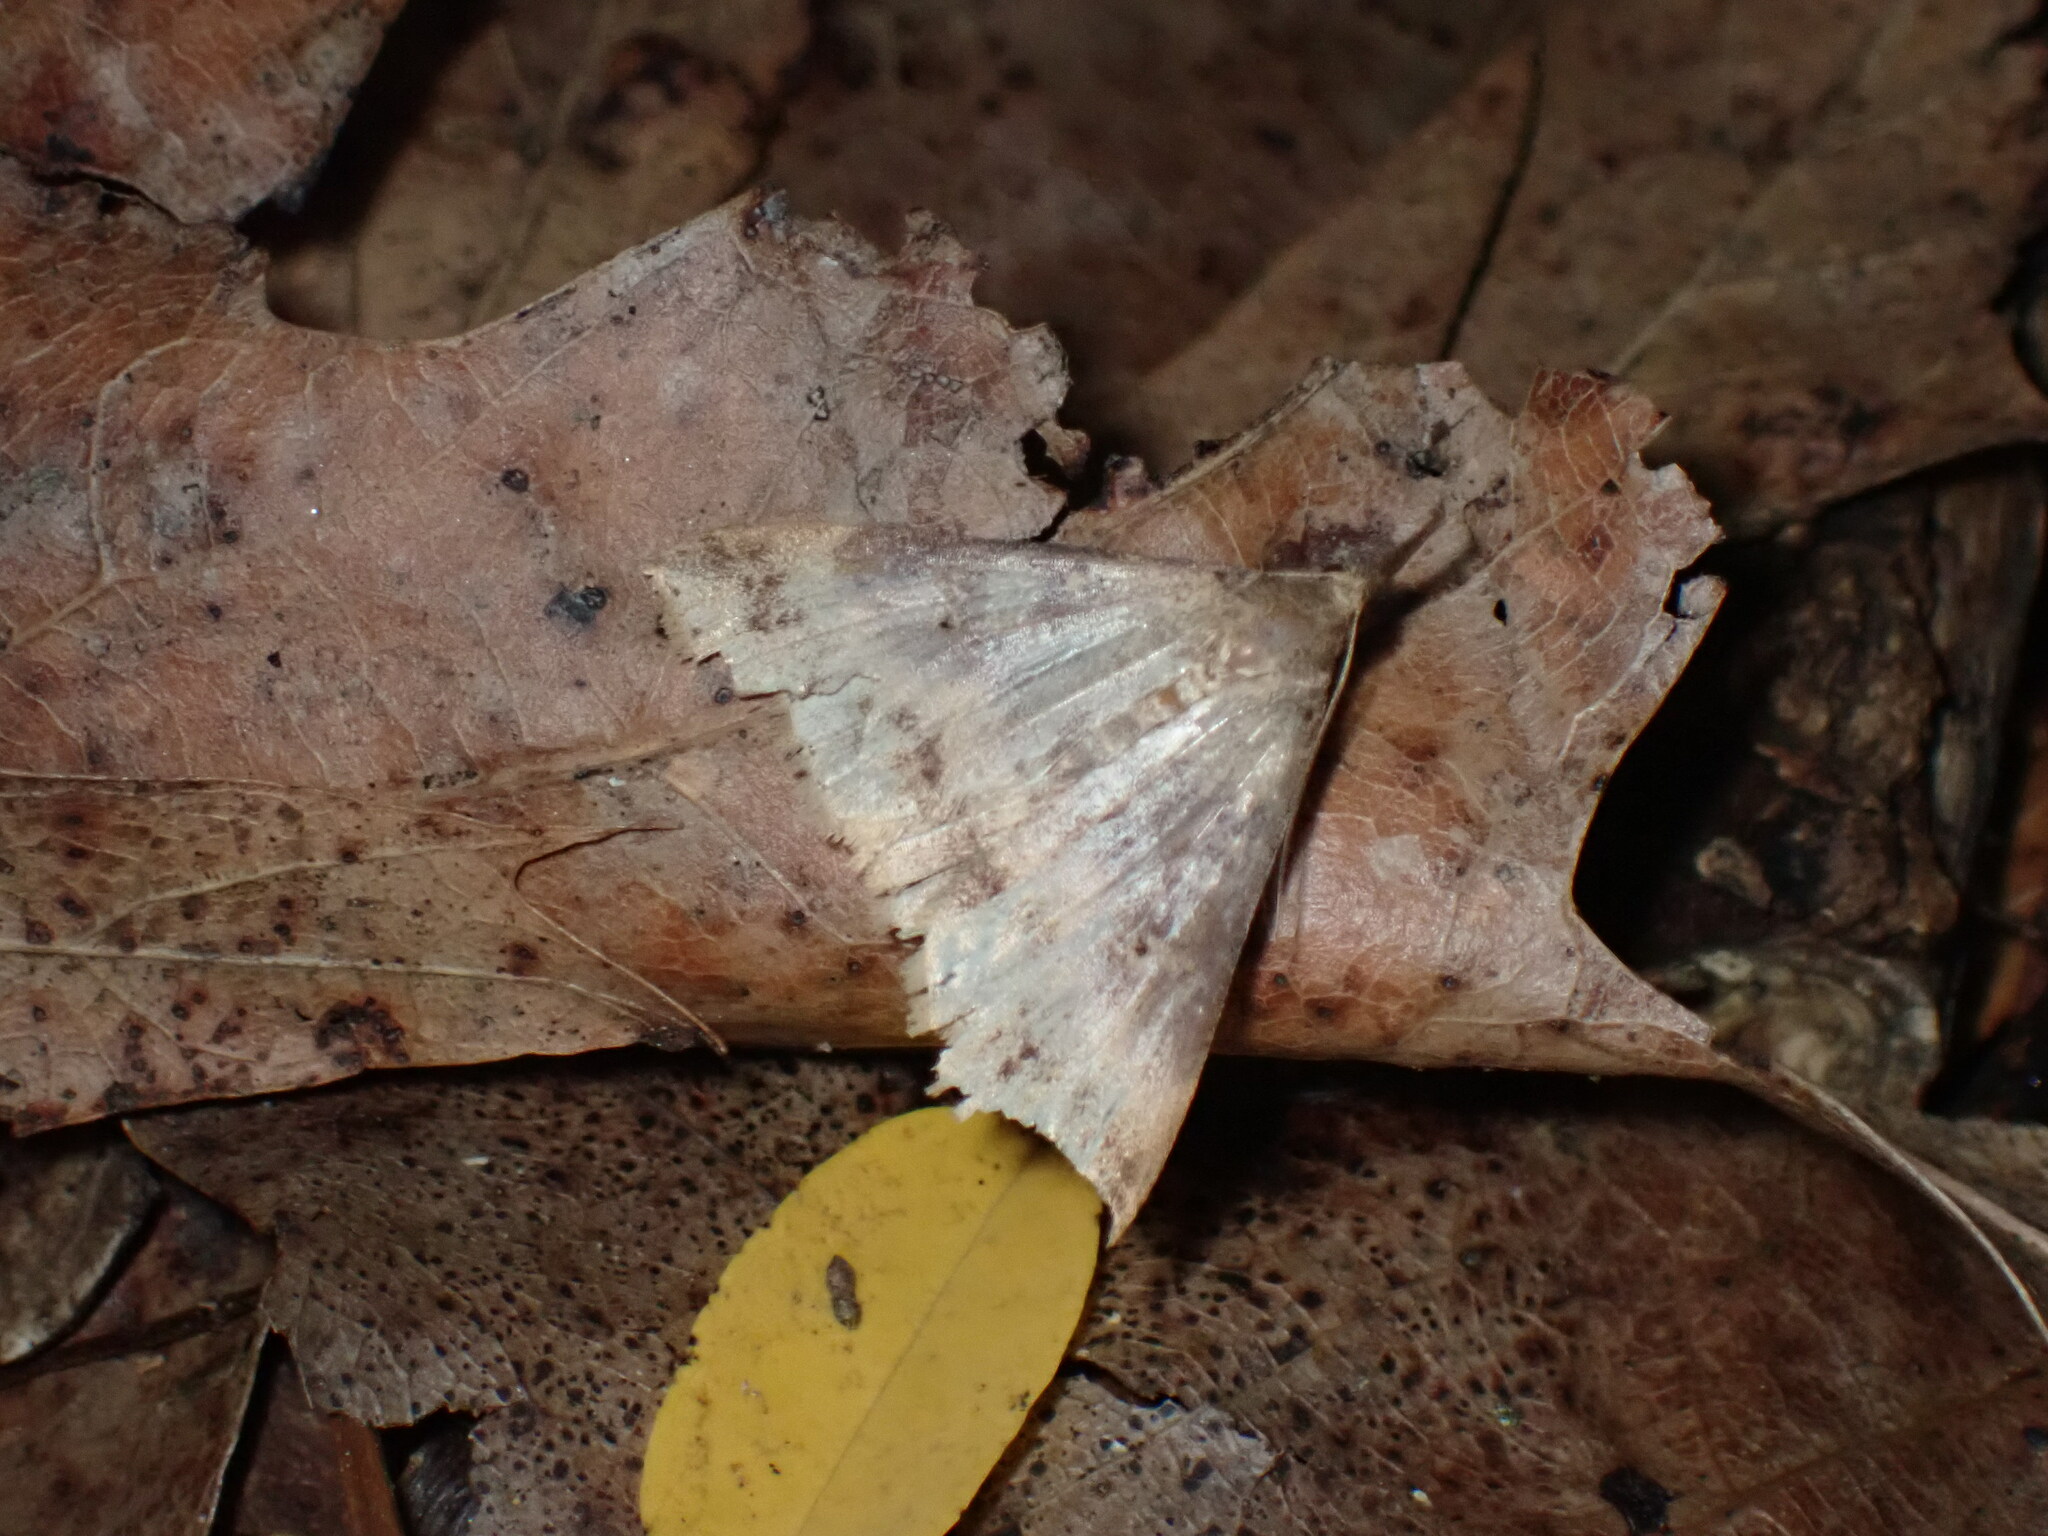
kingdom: Animalia
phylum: Arthropoda
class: Insecta
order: Lepidoptera
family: Erebidae
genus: Renia
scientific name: Renia discoloralis
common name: Discolored renia moth
